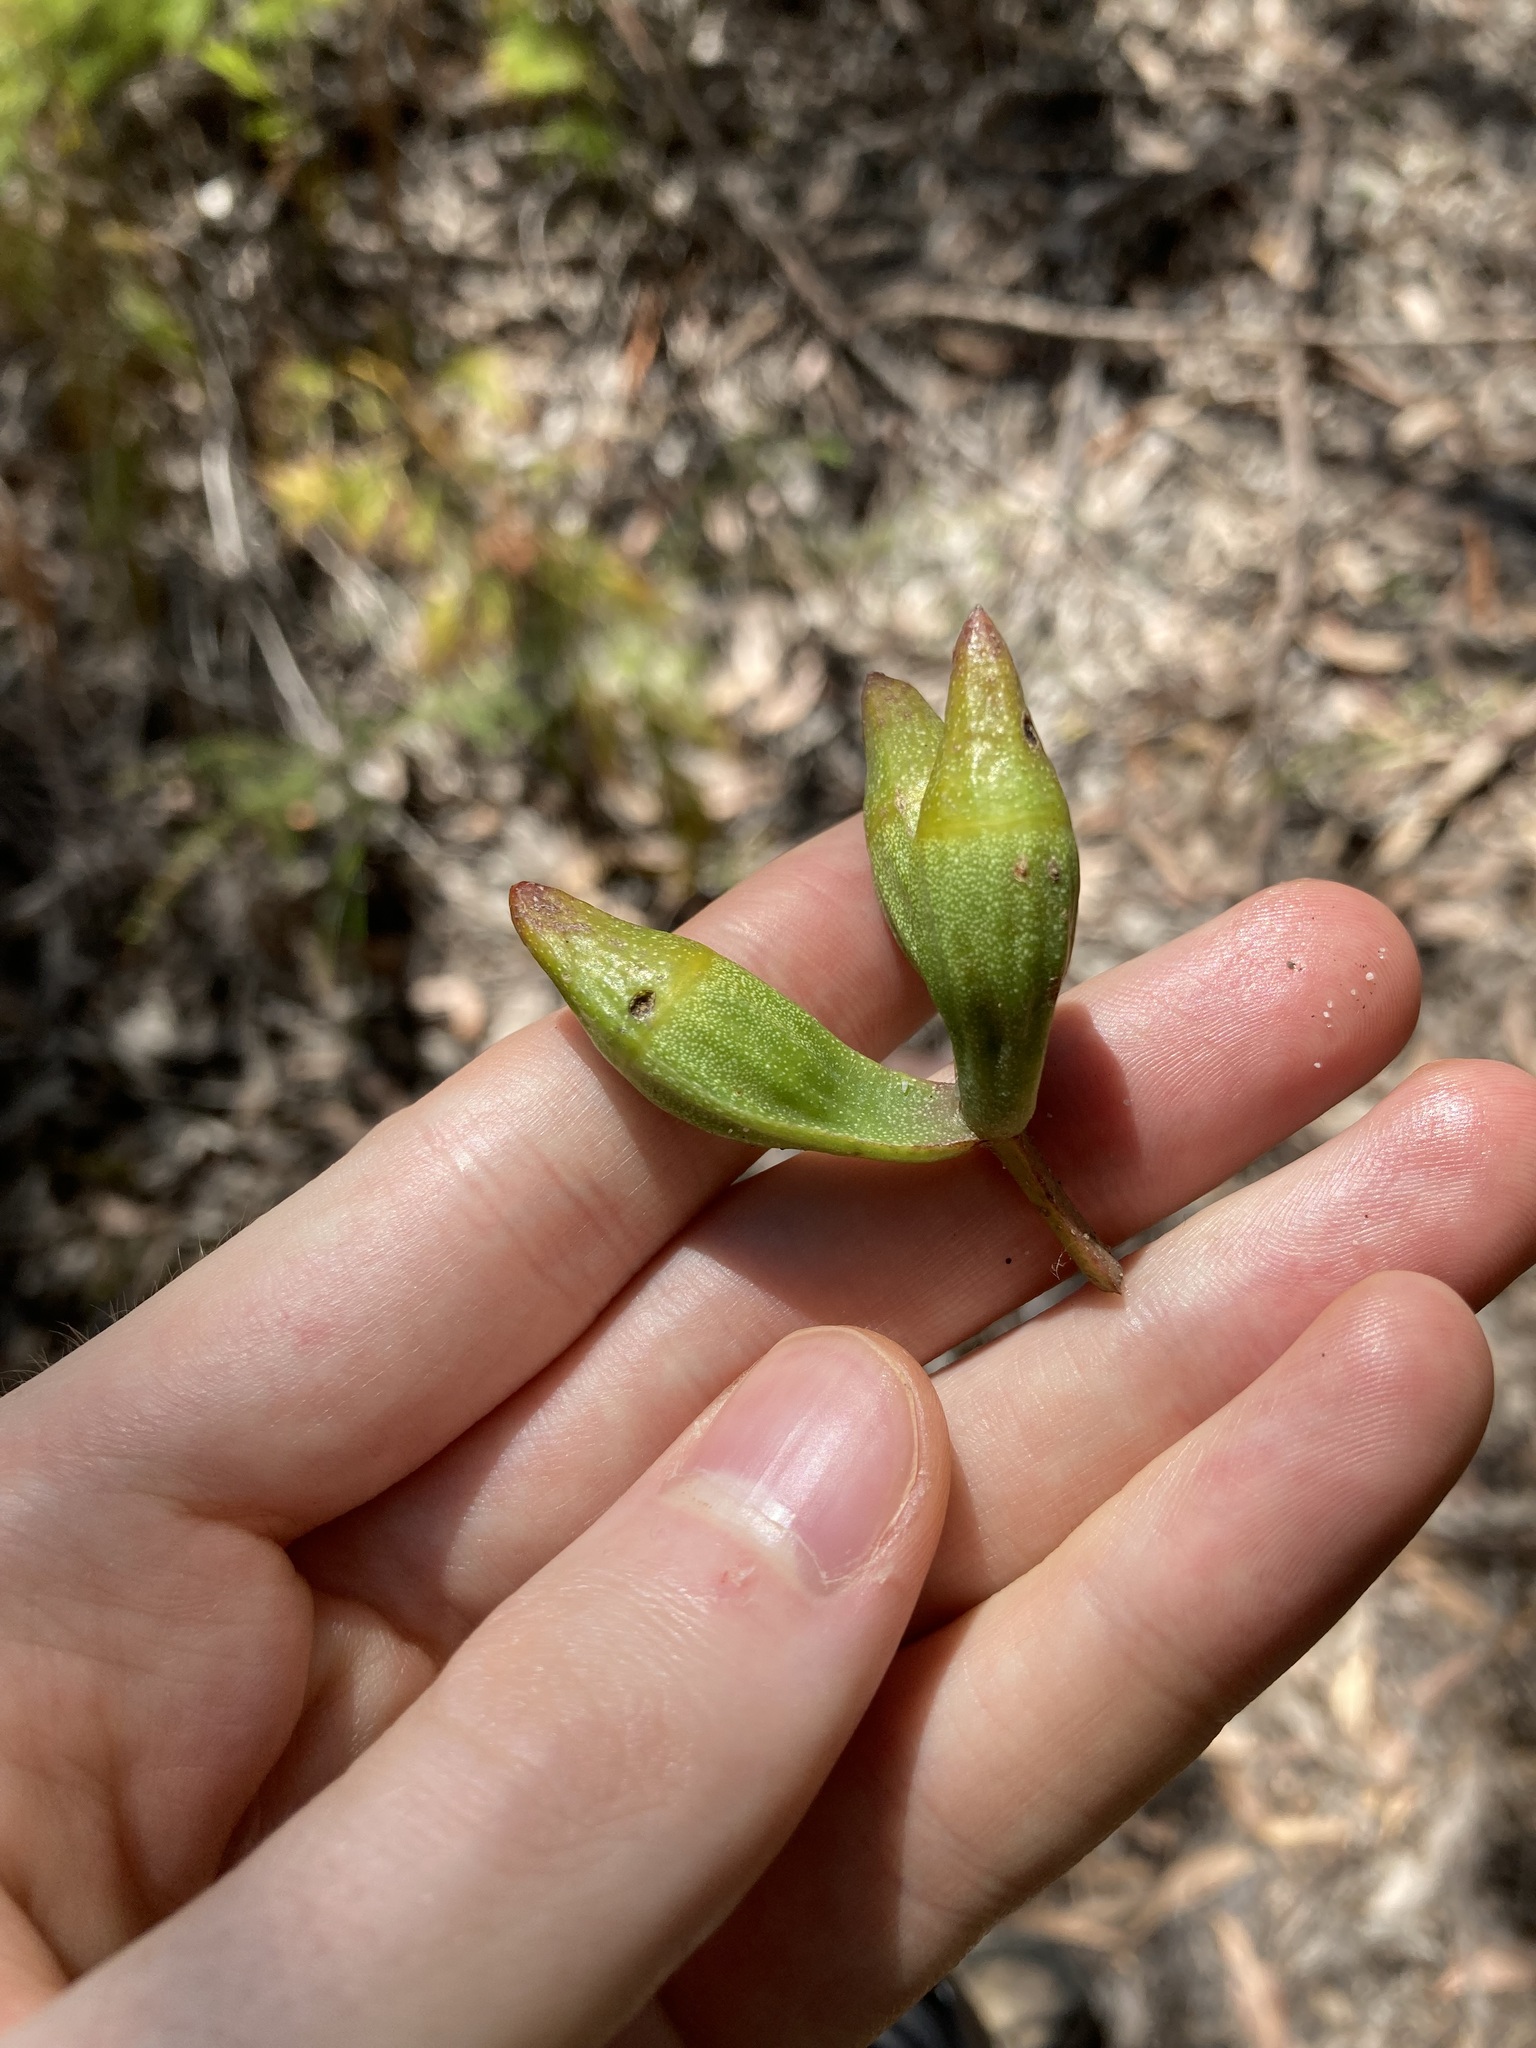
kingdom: Plantae
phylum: Tracheophyta
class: Magnoliopsida
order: Myrtales
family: Myrtaceae
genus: Eucalyptus
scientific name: Eucalyptus planchoniana
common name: Bastard-tallow-wood
